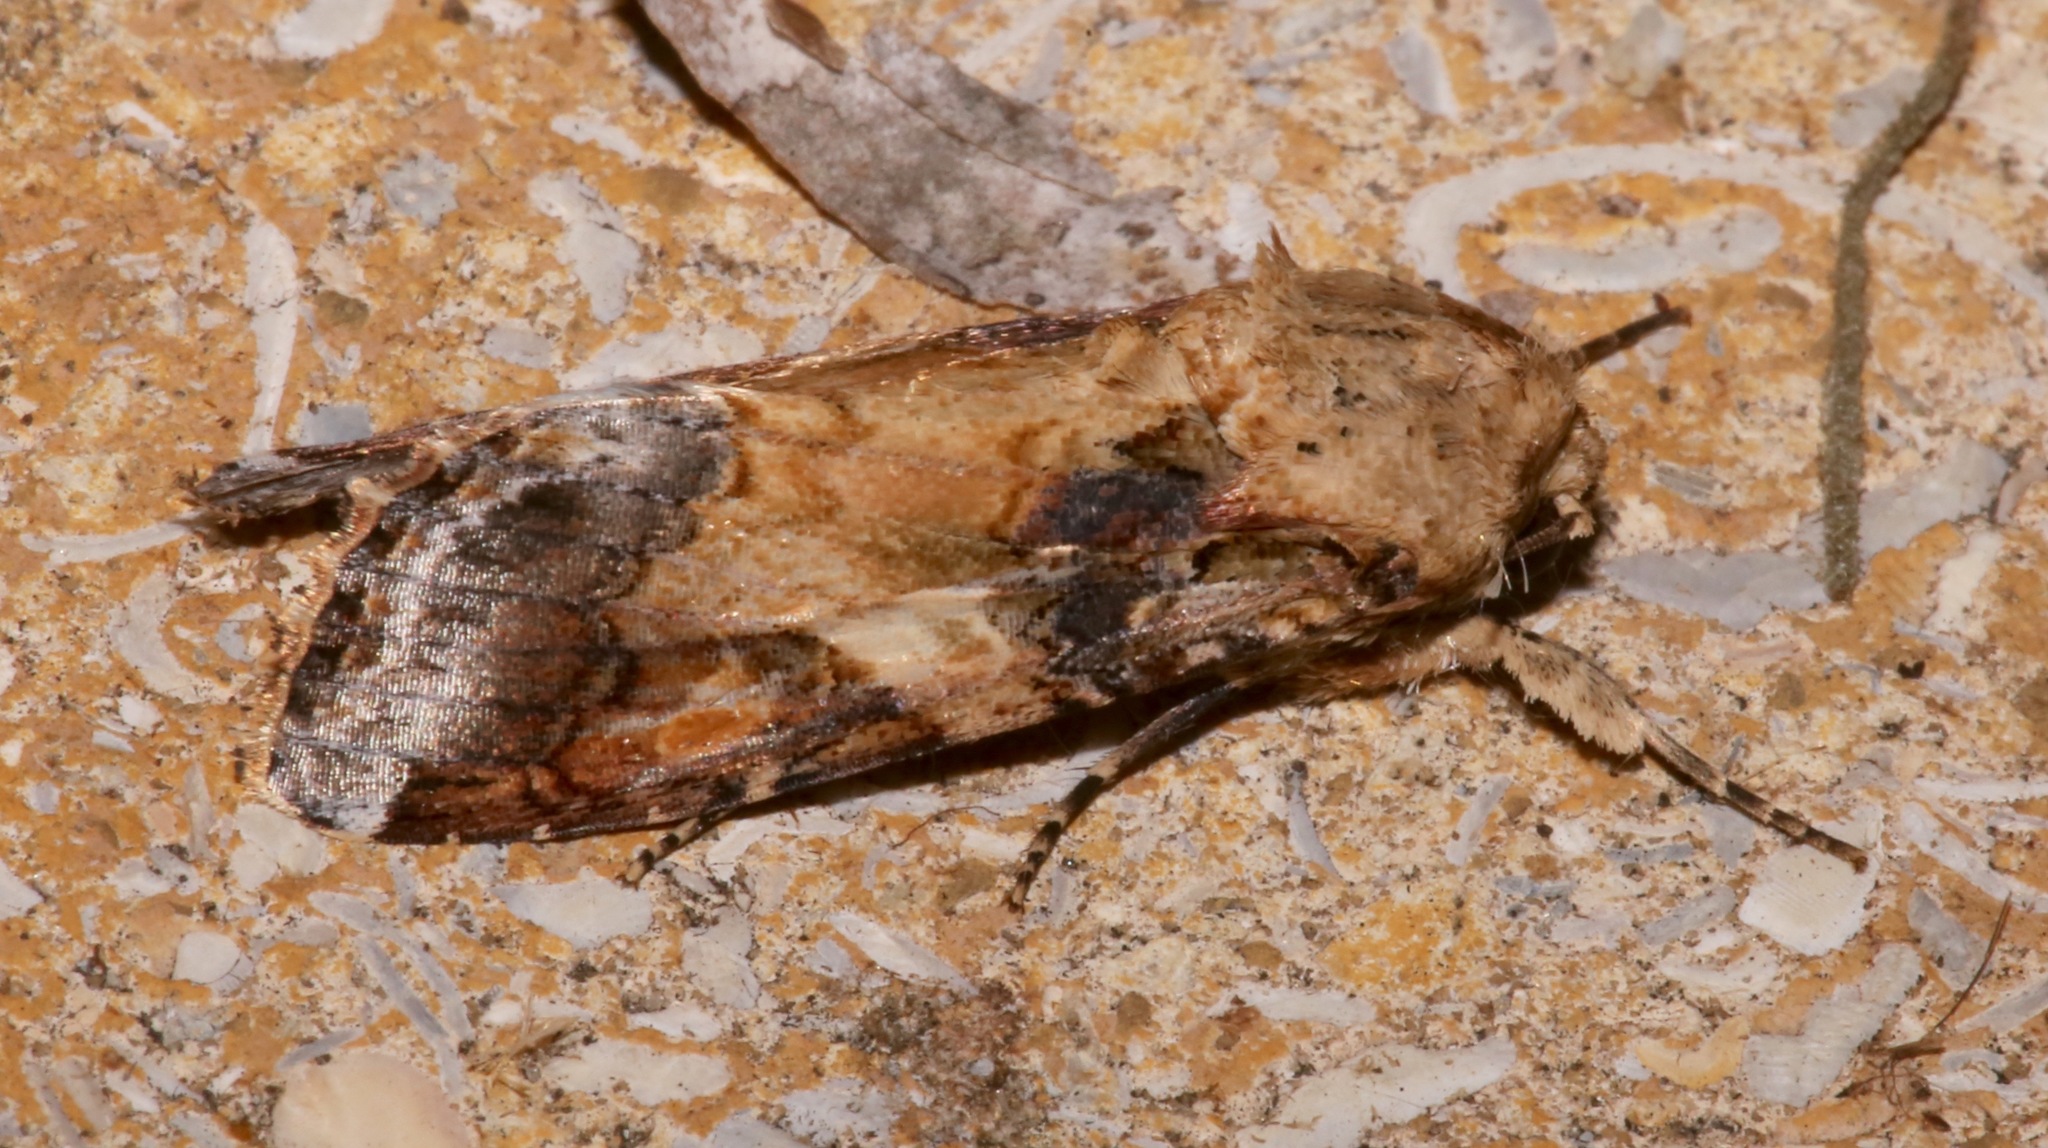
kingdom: Animalia
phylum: Arthropoda
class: Insecta
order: Lepidoptera
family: Noctuidae
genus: Spodoptera
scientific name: Spodoptera latifascia
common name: Velvet armyworm moth
